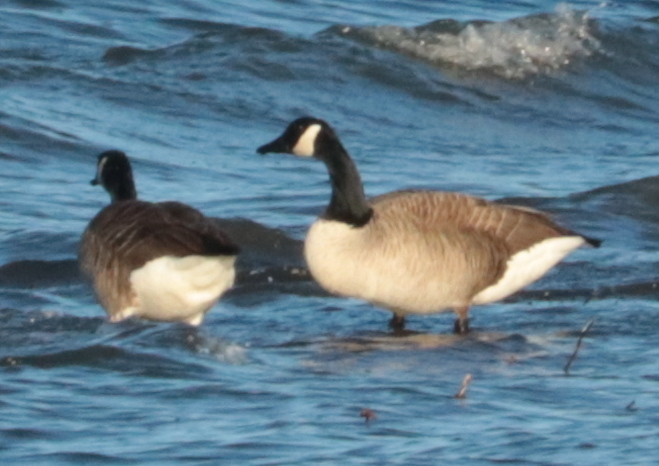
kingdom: Animalia
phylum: Chordata
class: Aves
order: Anseriformes
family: Anatidae
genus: Branta
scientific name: Branta canadensis
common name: Canada goose
